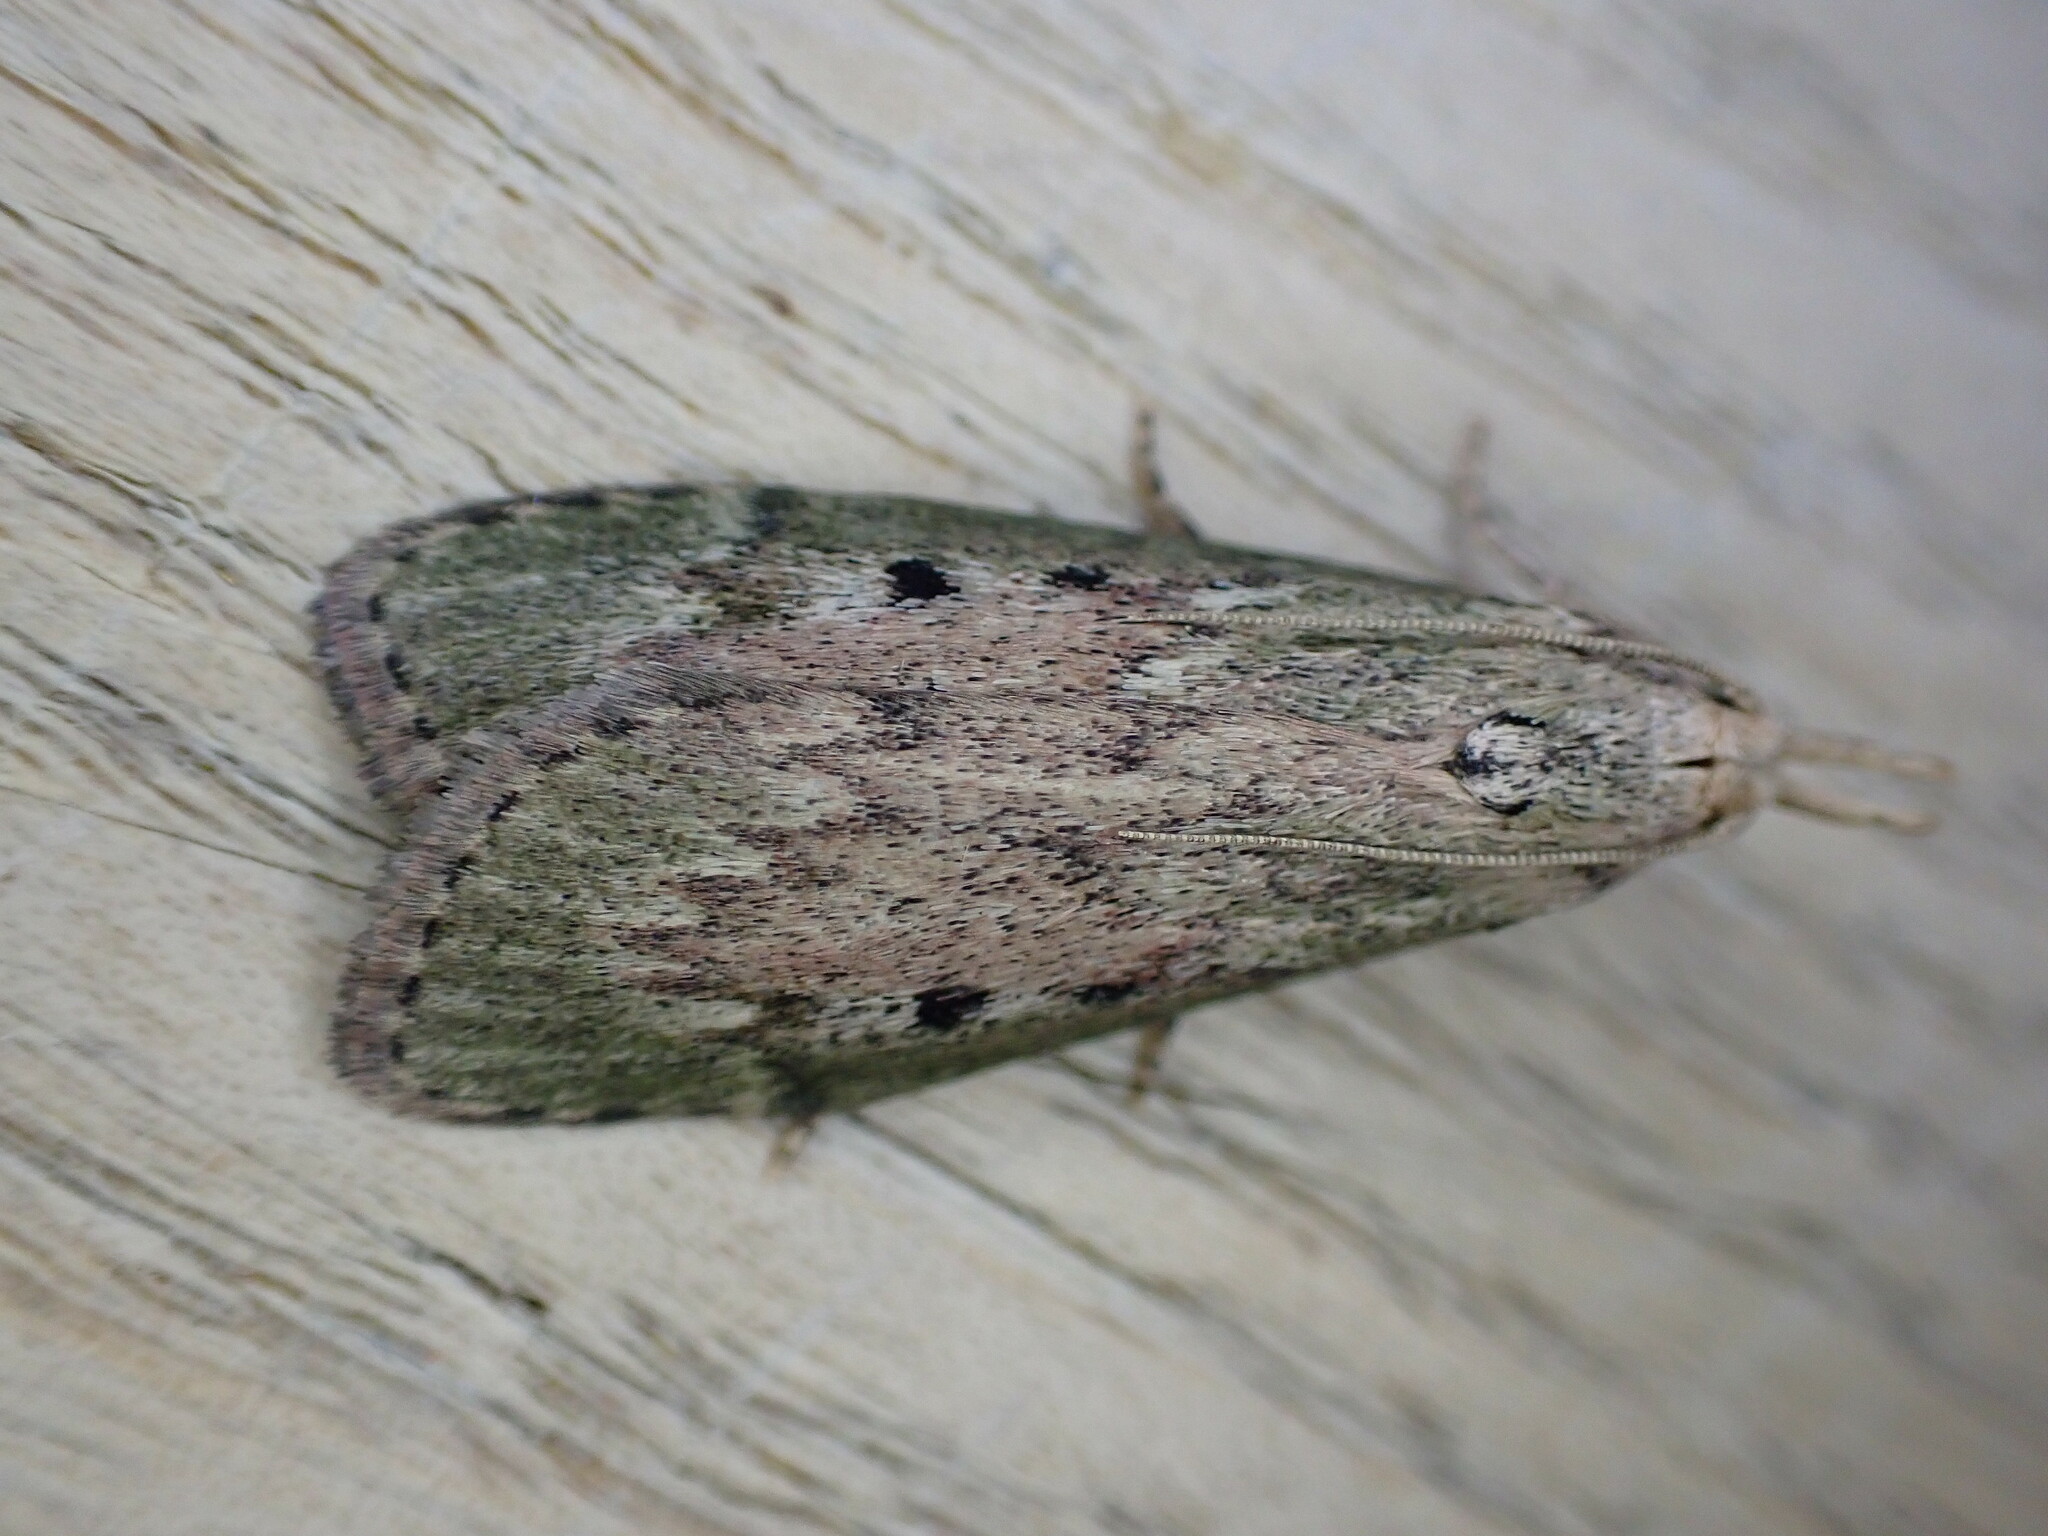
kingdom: Animalia
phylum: Arthropoda
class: Insecta
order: Lepidoptera
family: Pyralidae
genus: Aphomia
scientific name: Aphomia sociella
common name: Bee moth
